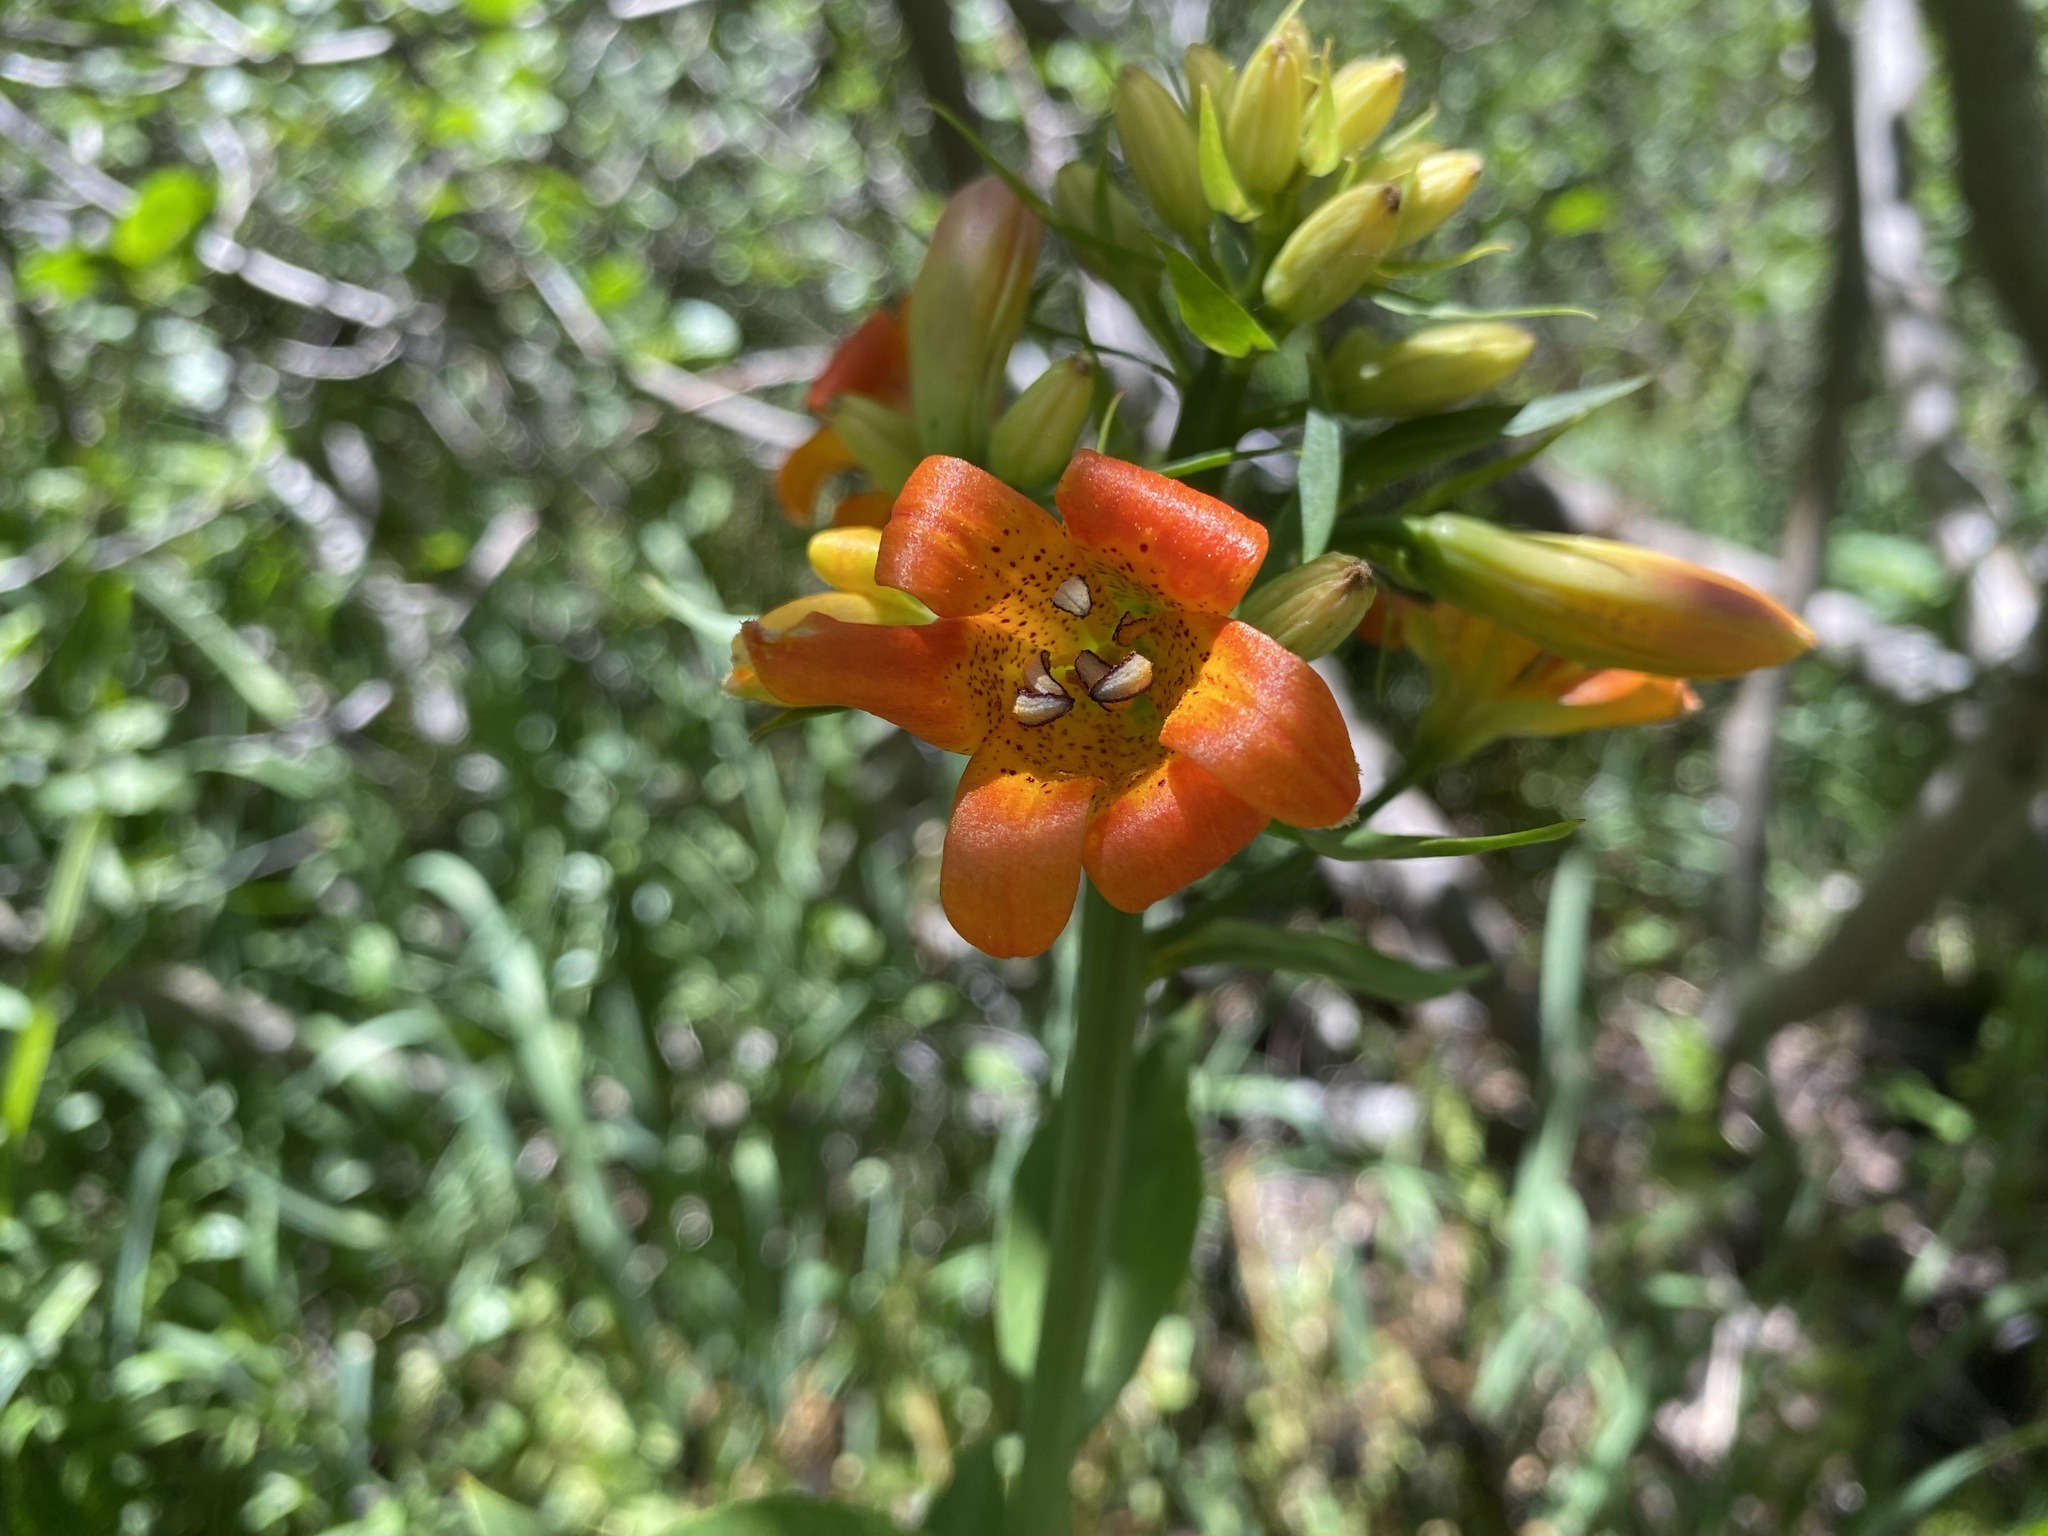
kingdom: Plantae
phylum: Tracheophyta
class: Liliopsida
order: Liliales
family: Liliaceae
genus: Lilium
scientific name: Lilium parvum
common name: Alpine lily
